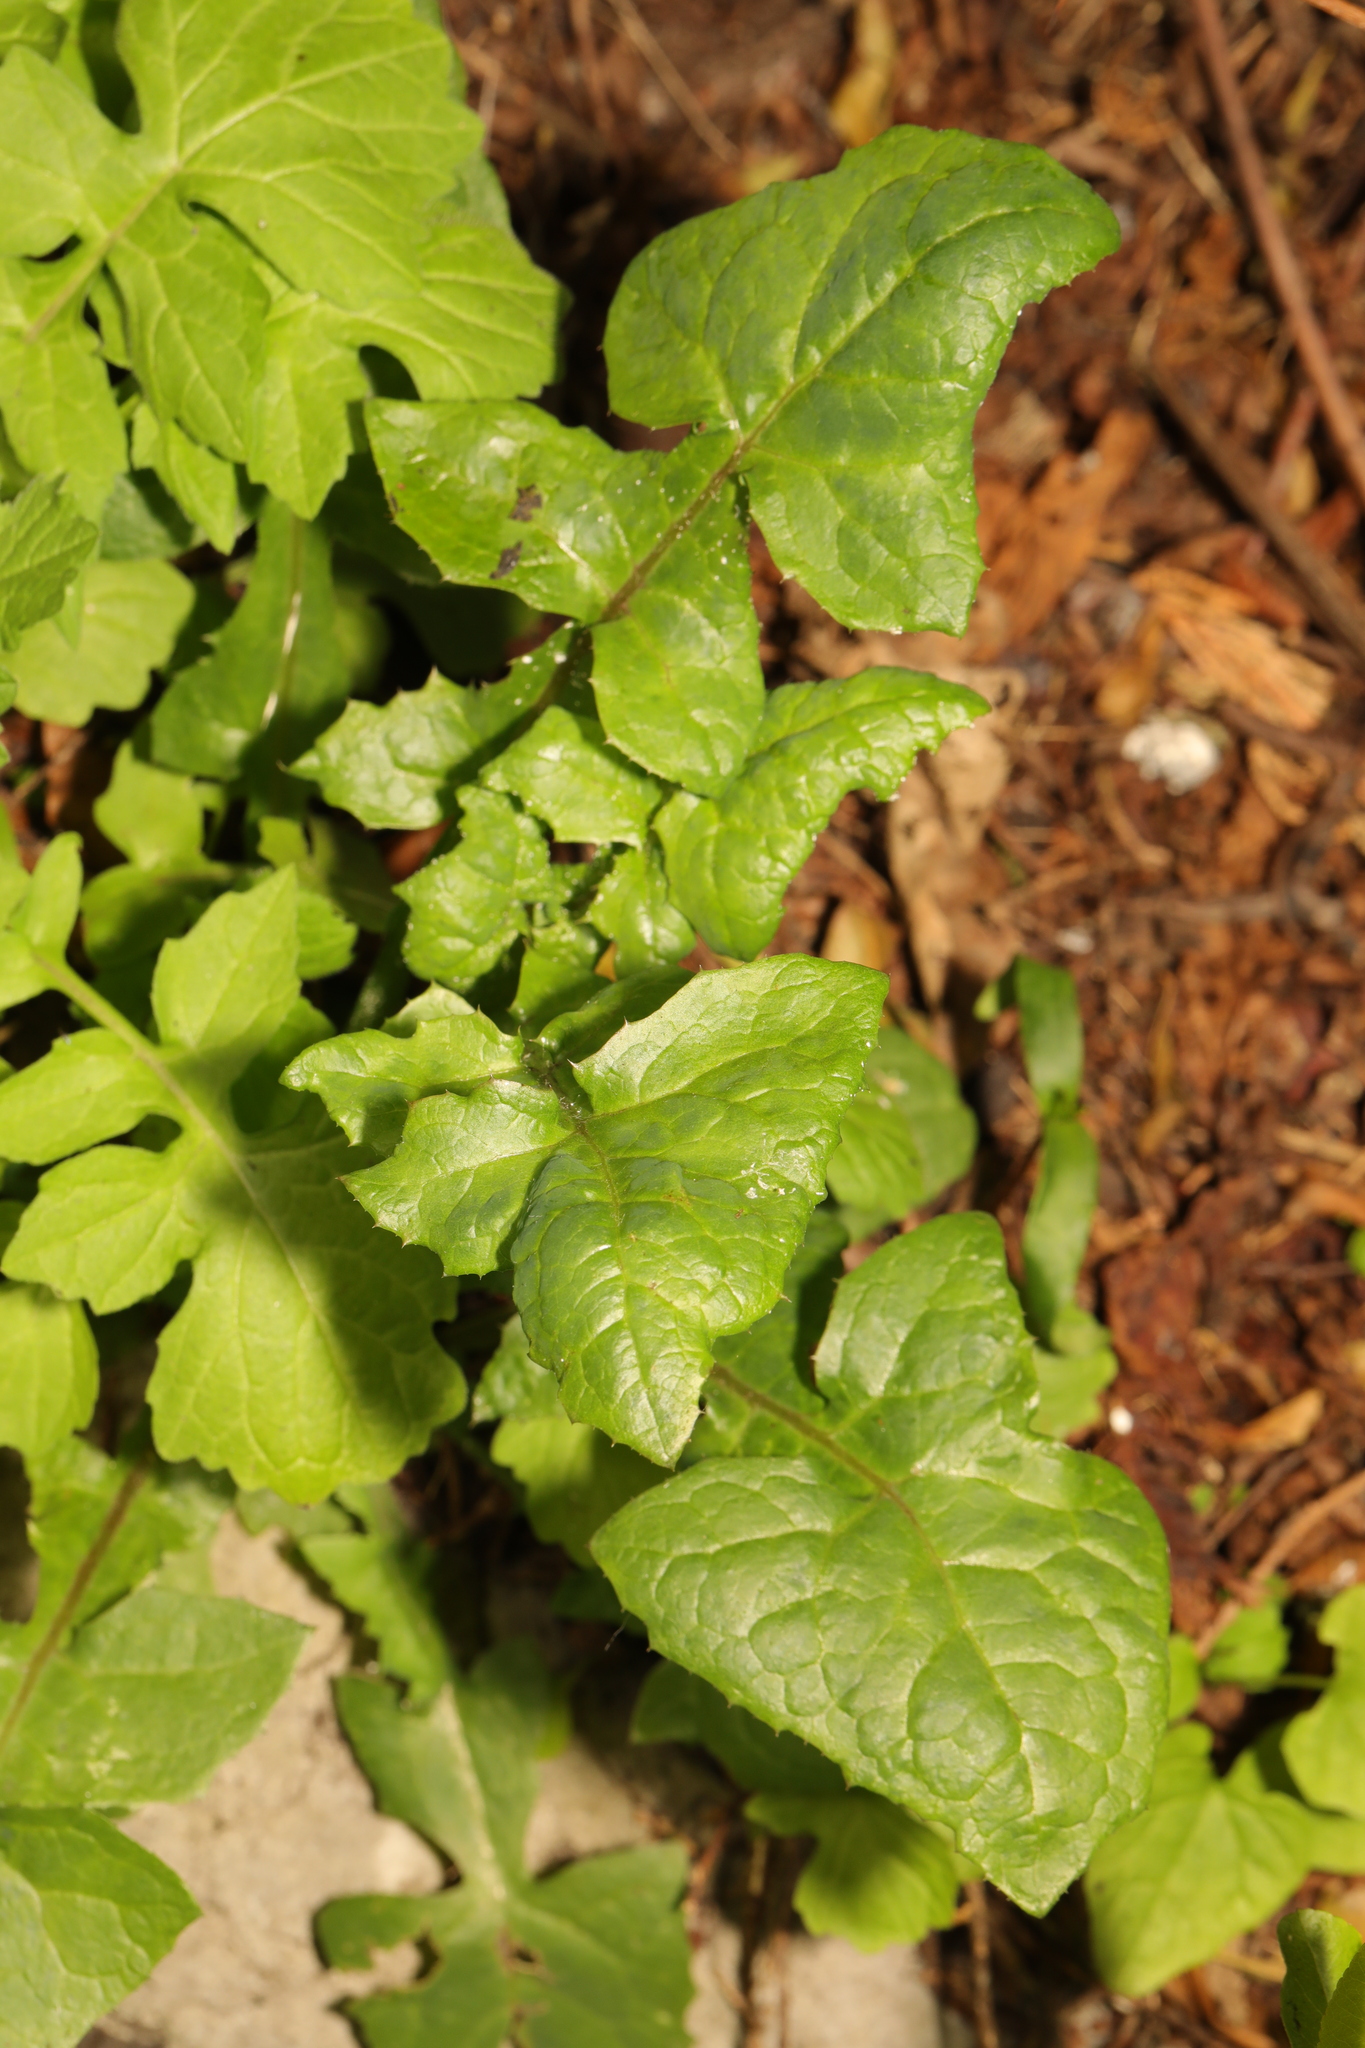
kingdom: Plantae
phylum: Tracheophyta
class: Magnoliopsida
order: Asterales
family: Asteraceae
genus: Sonchus
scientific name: Sonchus oleraceus
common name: Common sowthistle
